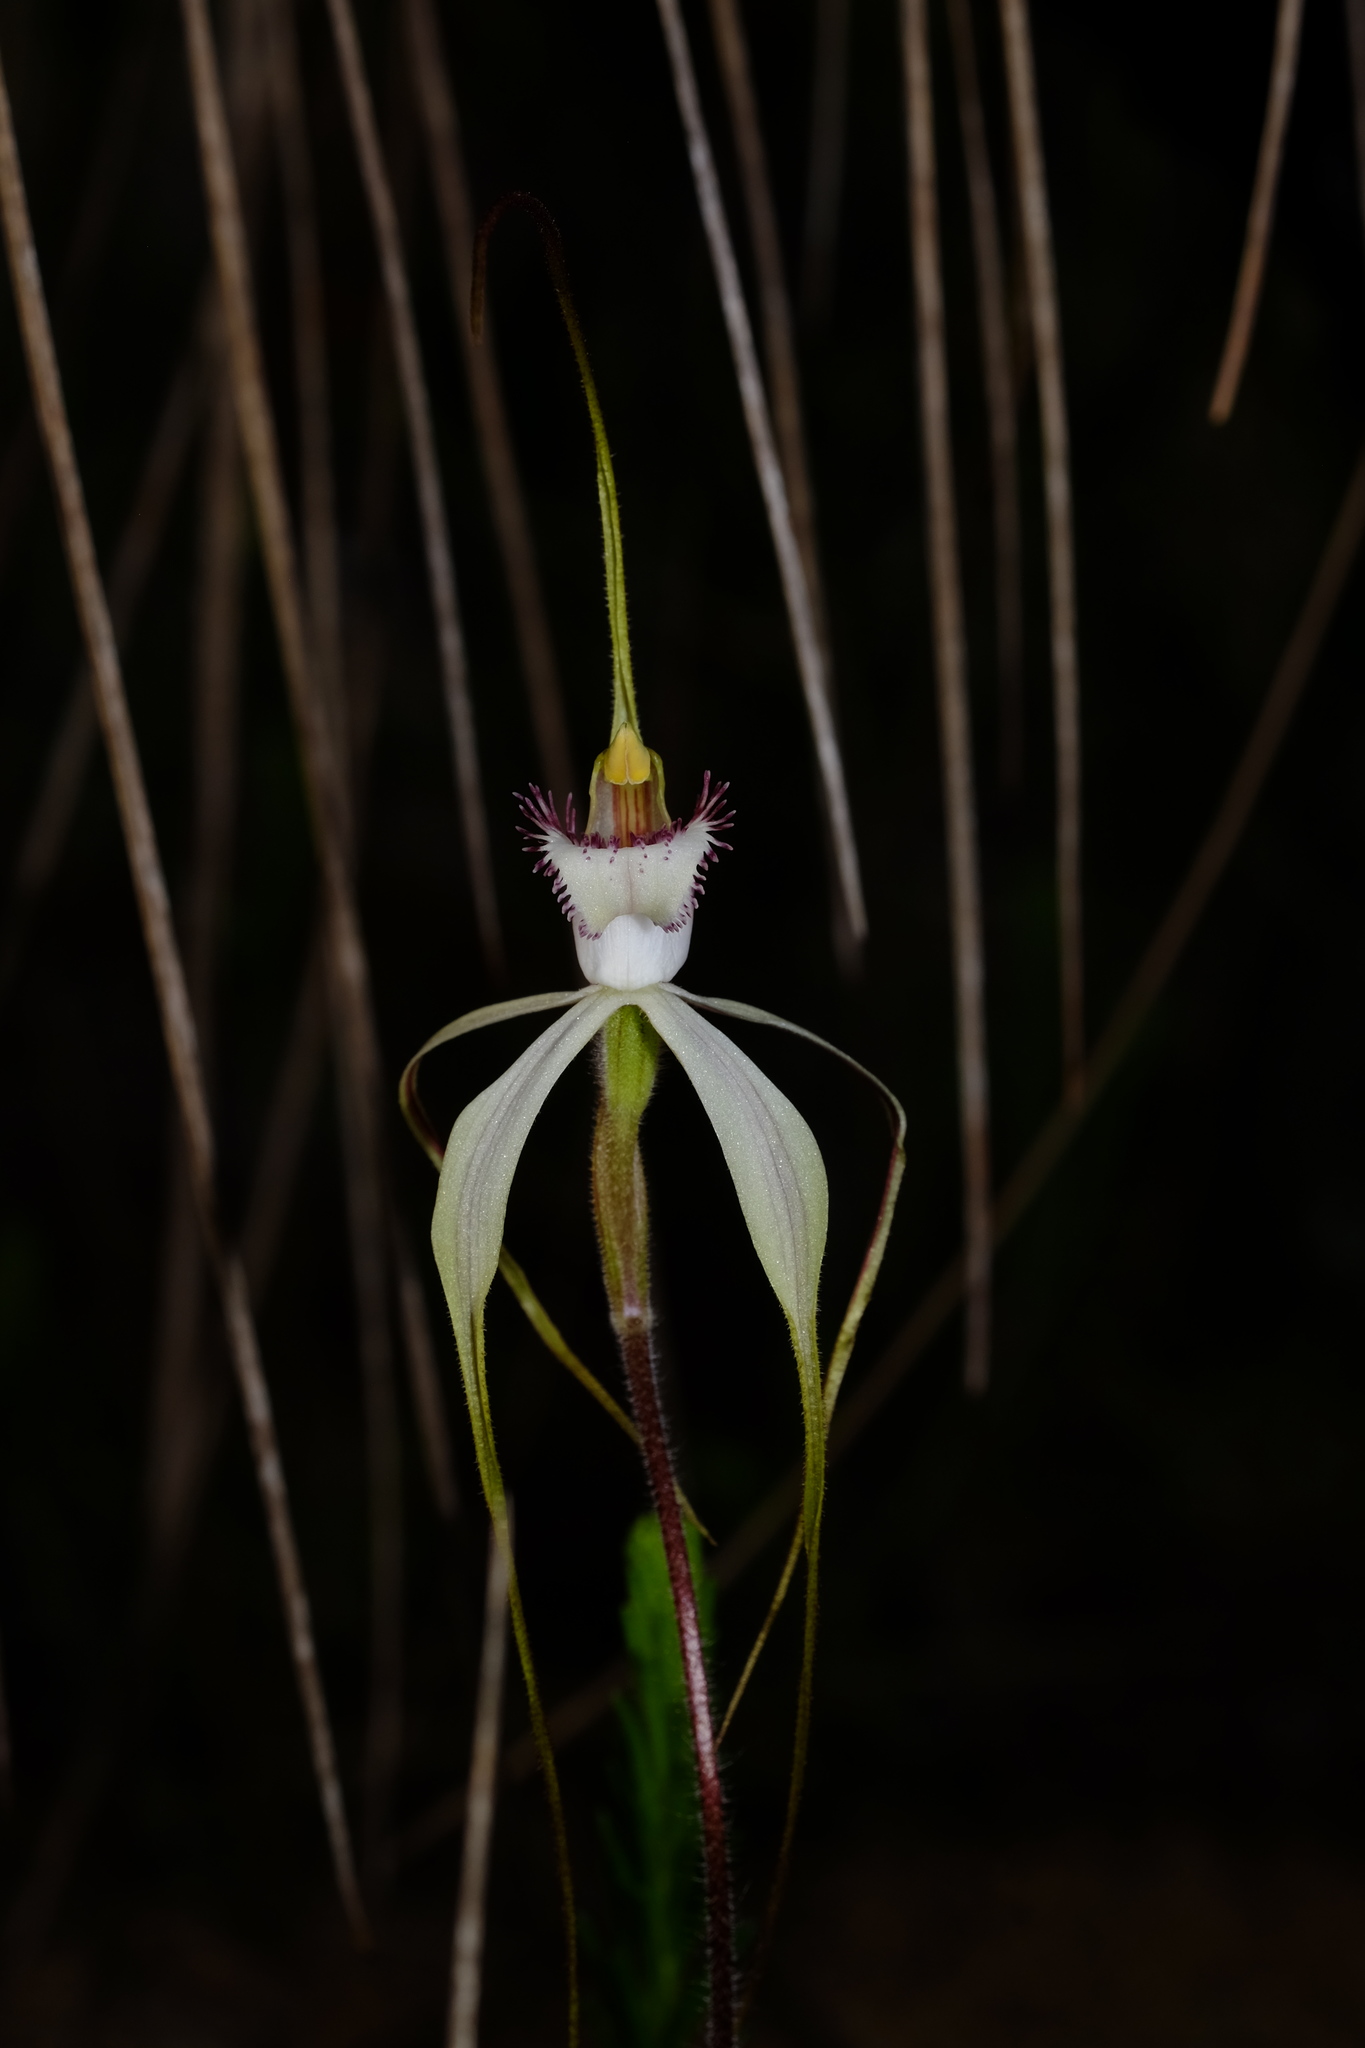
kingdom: Plantae
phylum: Tracheophyta
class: Liliopsida
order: Asparagales
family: Orchidaceae
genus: Caladenia
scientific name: Caladenia venusta
